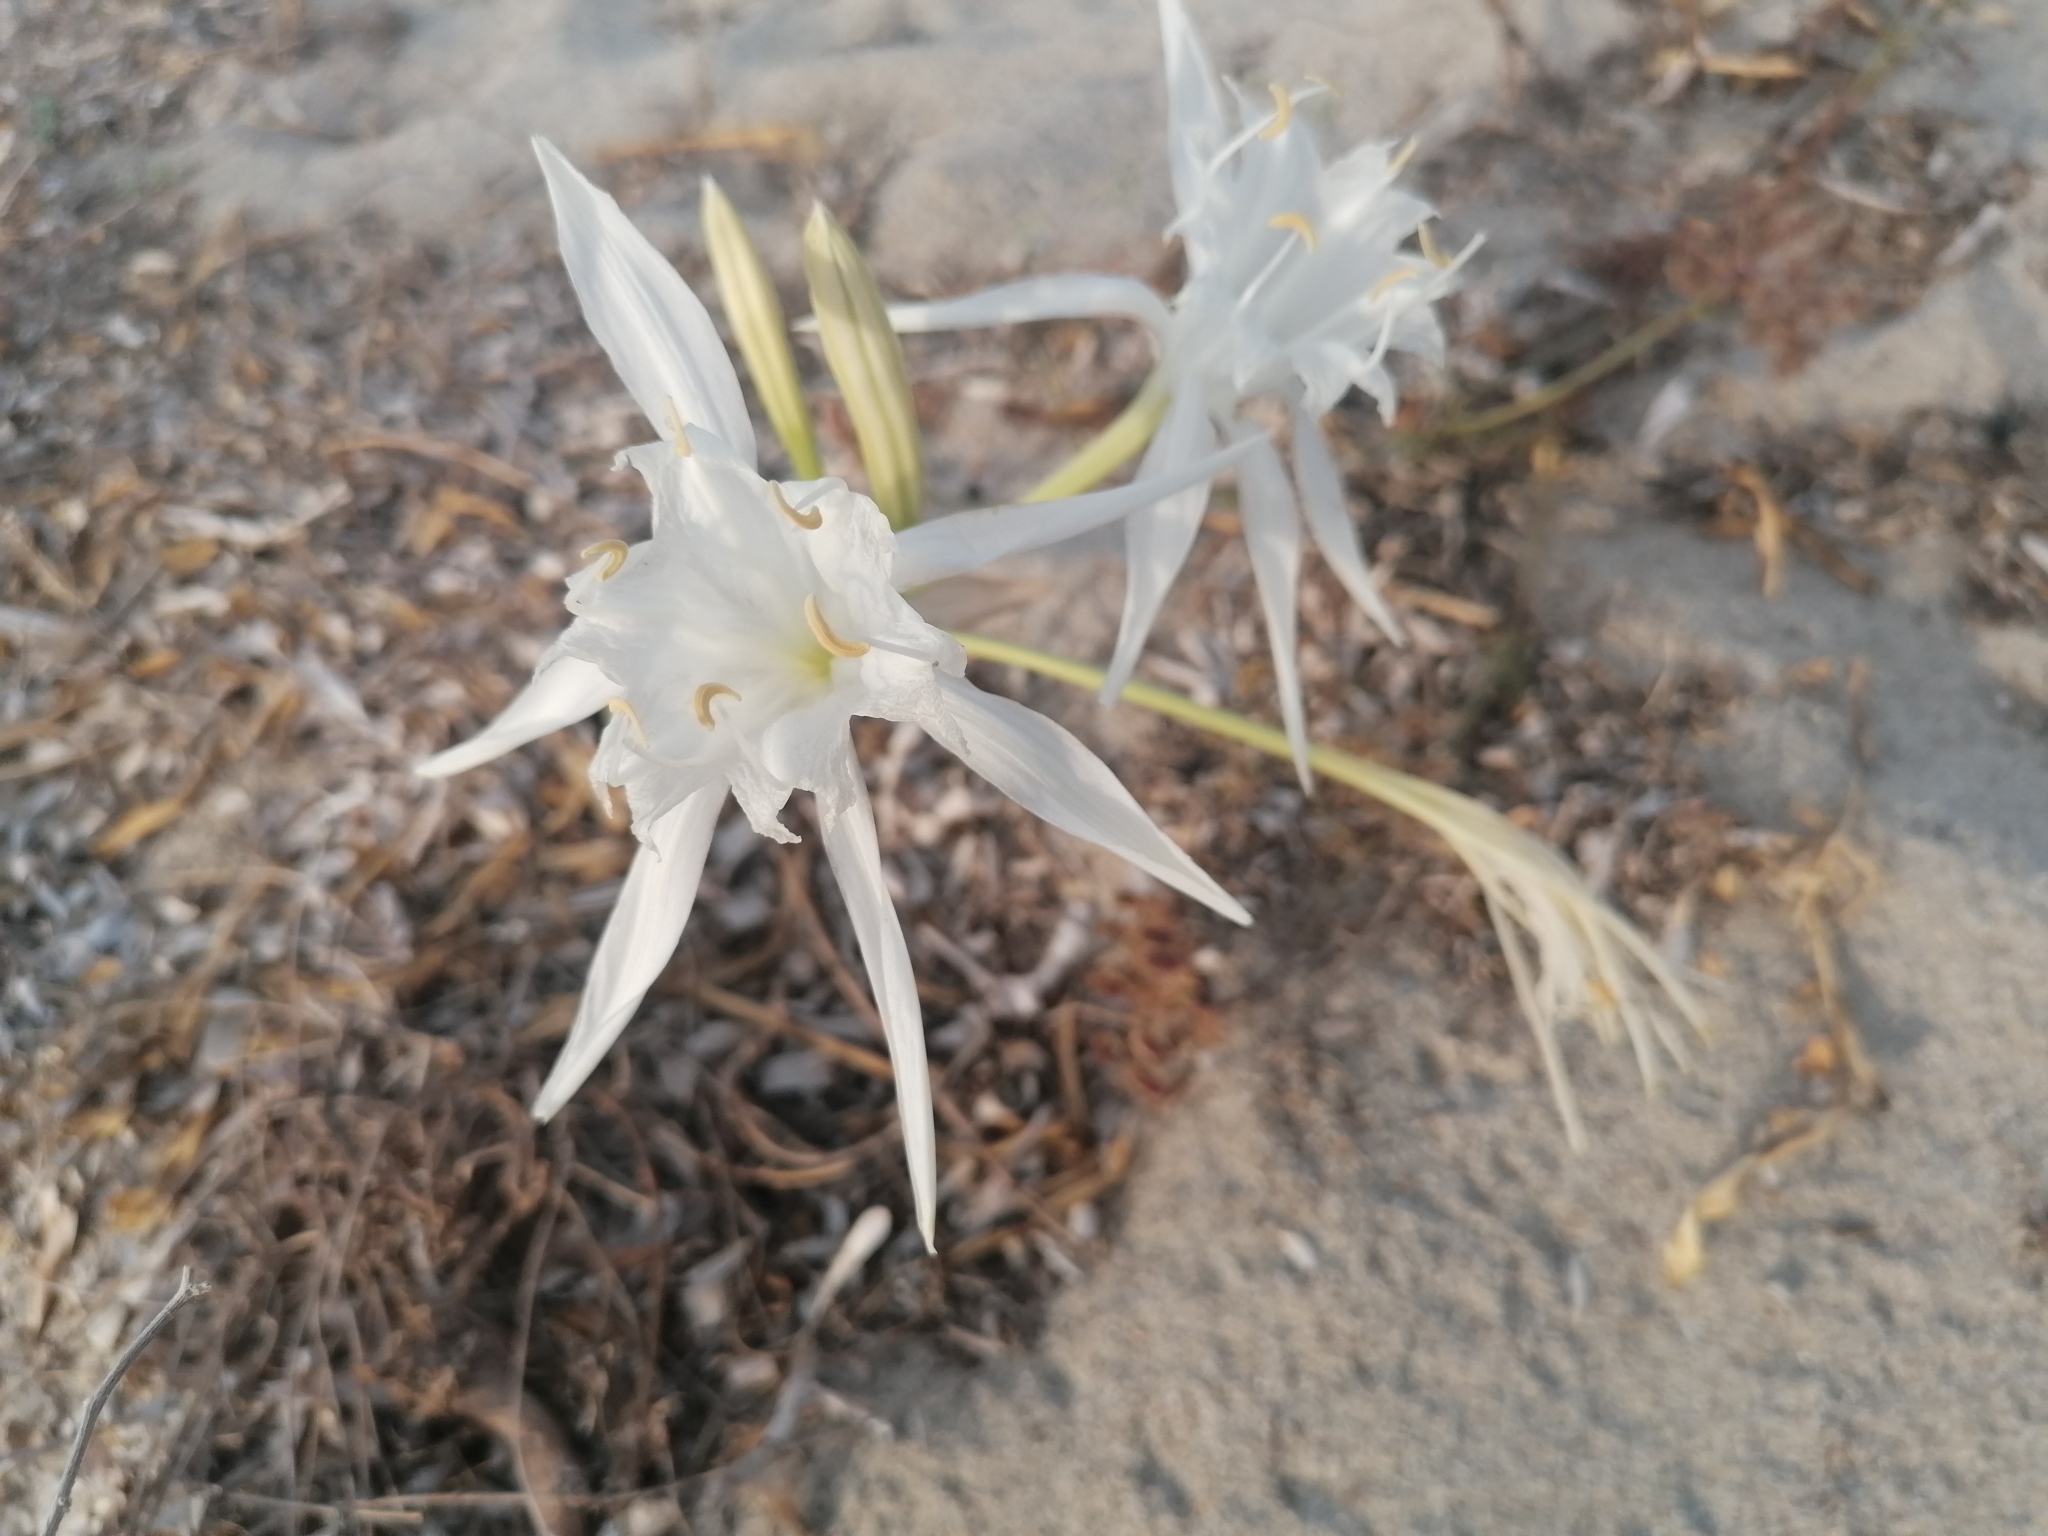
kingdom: Plantae
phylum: Tracheophyta
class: Liliopsida
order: Asparagales
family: Amaryllidaceae
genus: Pancratium
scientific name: Pancratium maritimum
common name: Sea-daffodil
